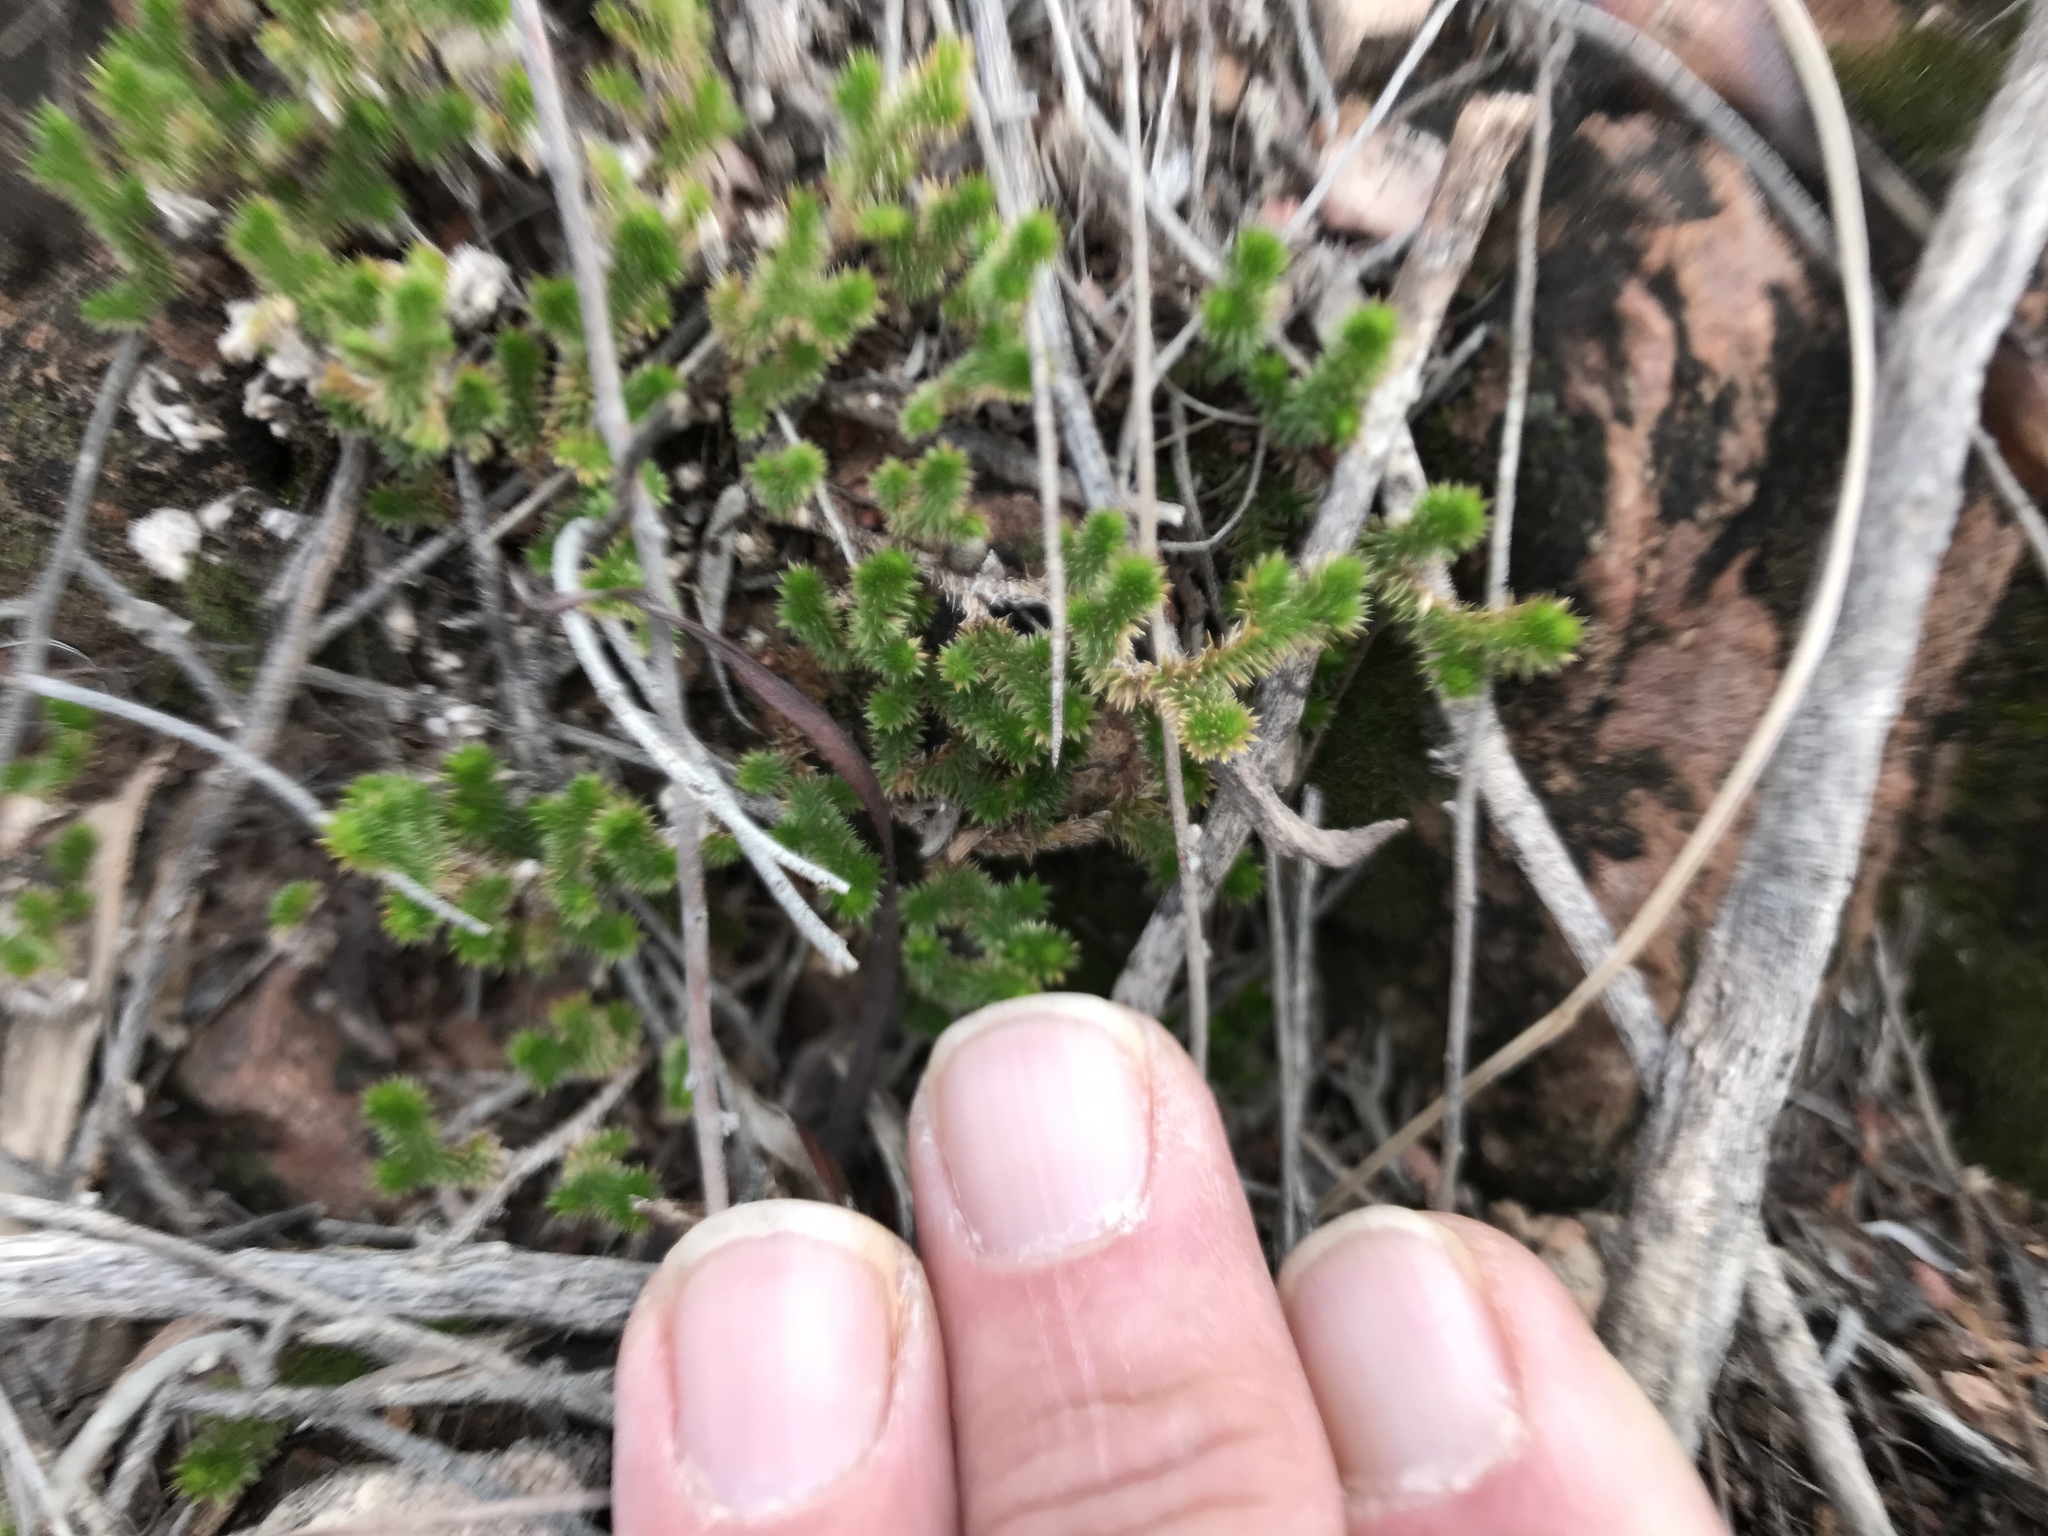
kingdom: Plantae
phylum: Tracheophyta
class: Lycopodiopsida
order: Selaginellales
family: Selaginellaceae
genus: Selaginella
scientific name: Selaginella arizonica
